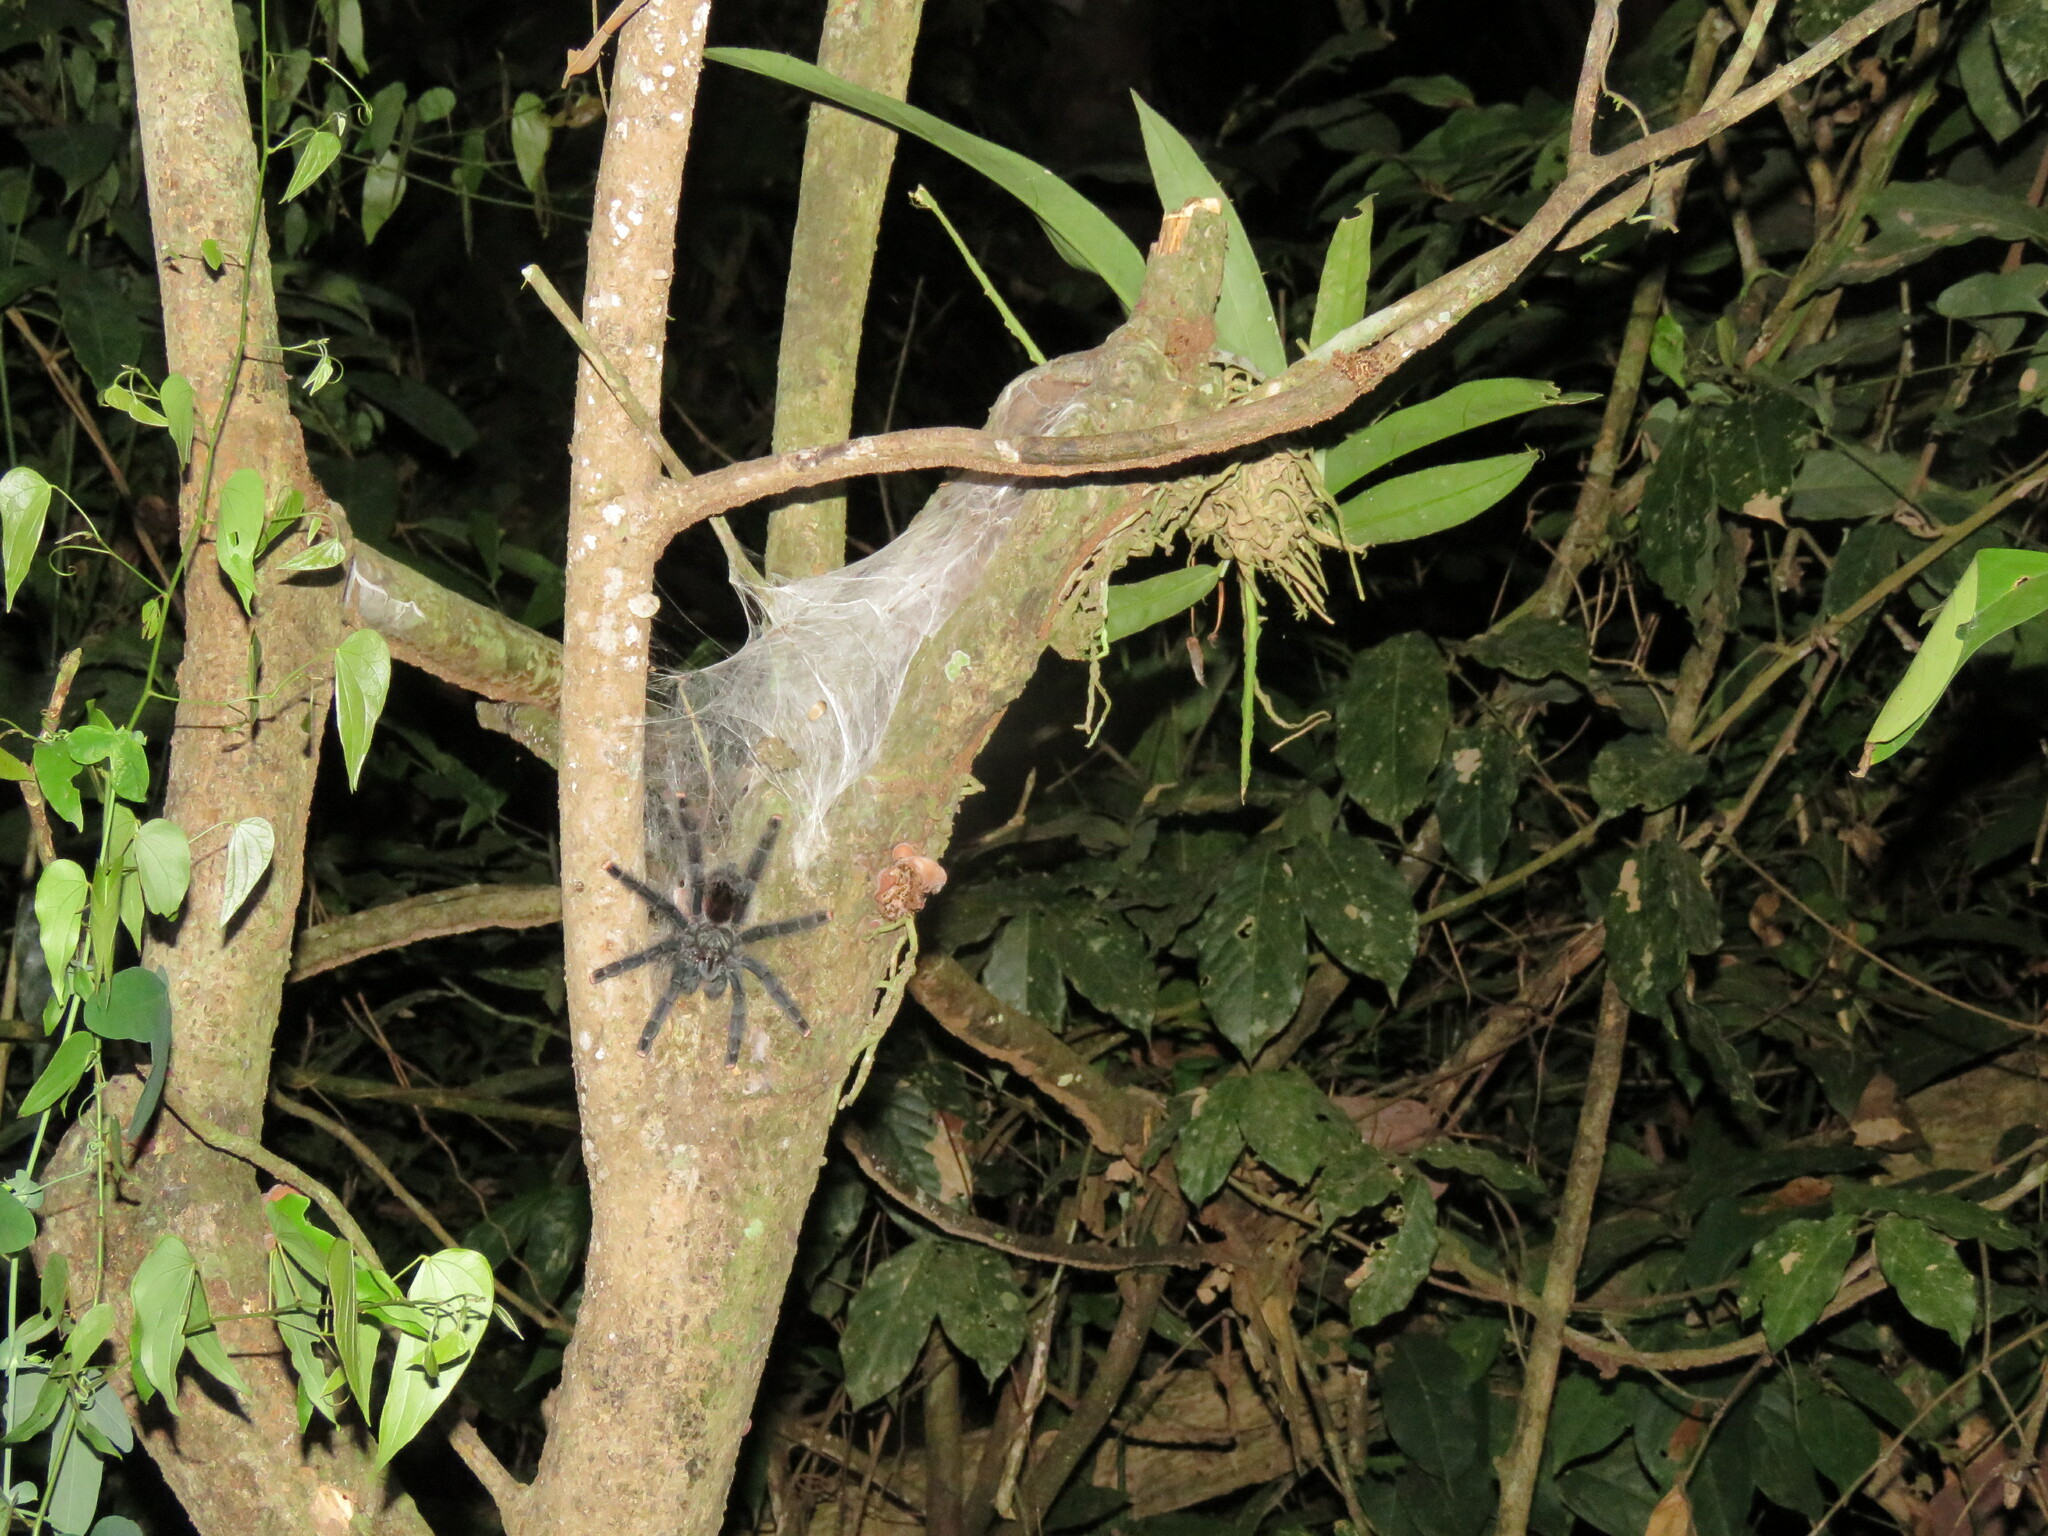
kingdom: Animalia
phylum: Arthropoda
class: Arachnida
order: Araneae
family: Theraphosidae
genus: Avicularia
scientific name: Avicularia avicularia
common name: Tarantula spiders
